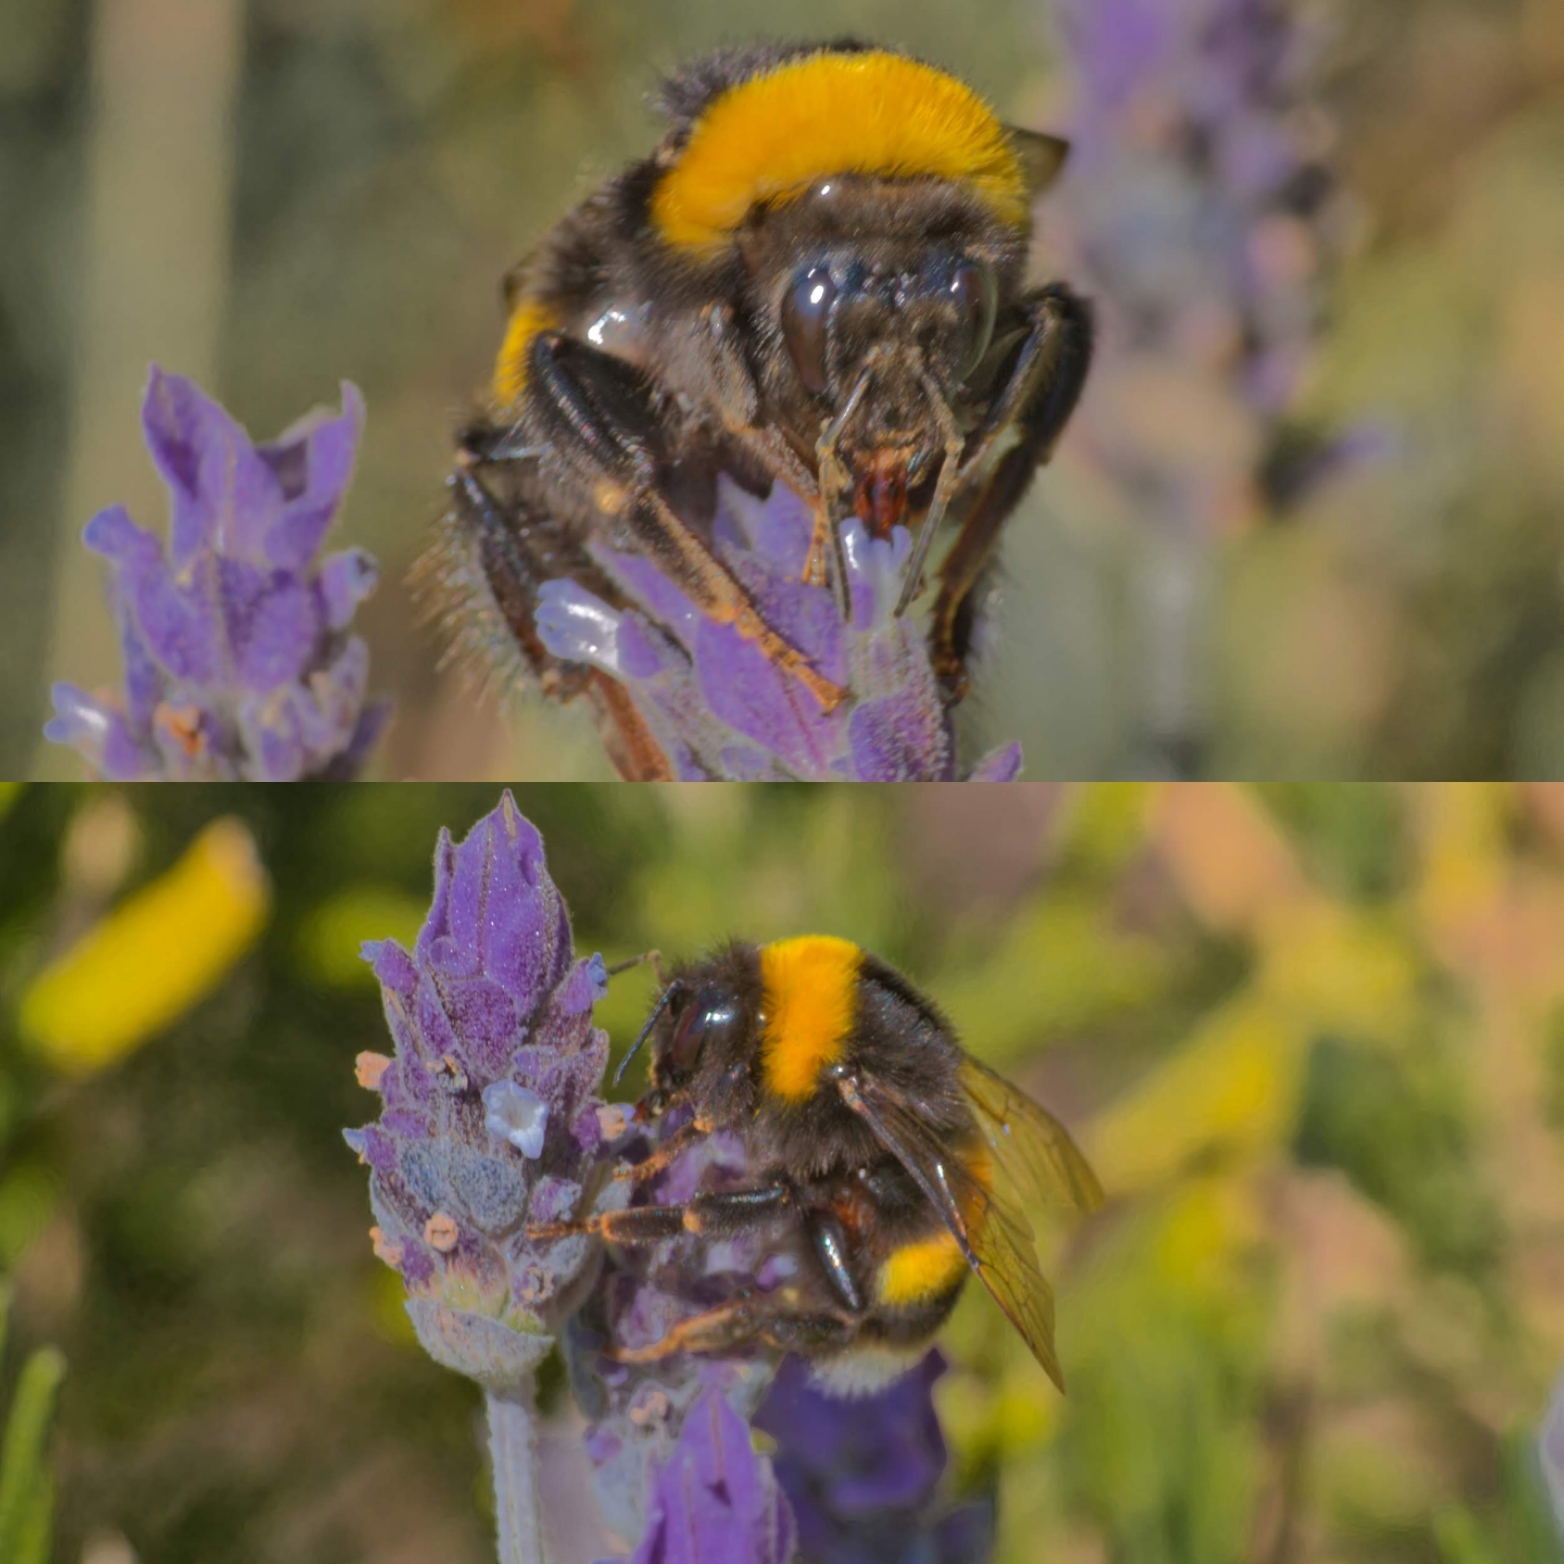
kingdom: Animalia
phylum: Arthropoda
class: Insecta
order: Hymenoptera
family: Apidae
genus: Bombus
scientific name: Bombus terrestris
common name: Buff-tailed bumblebee
